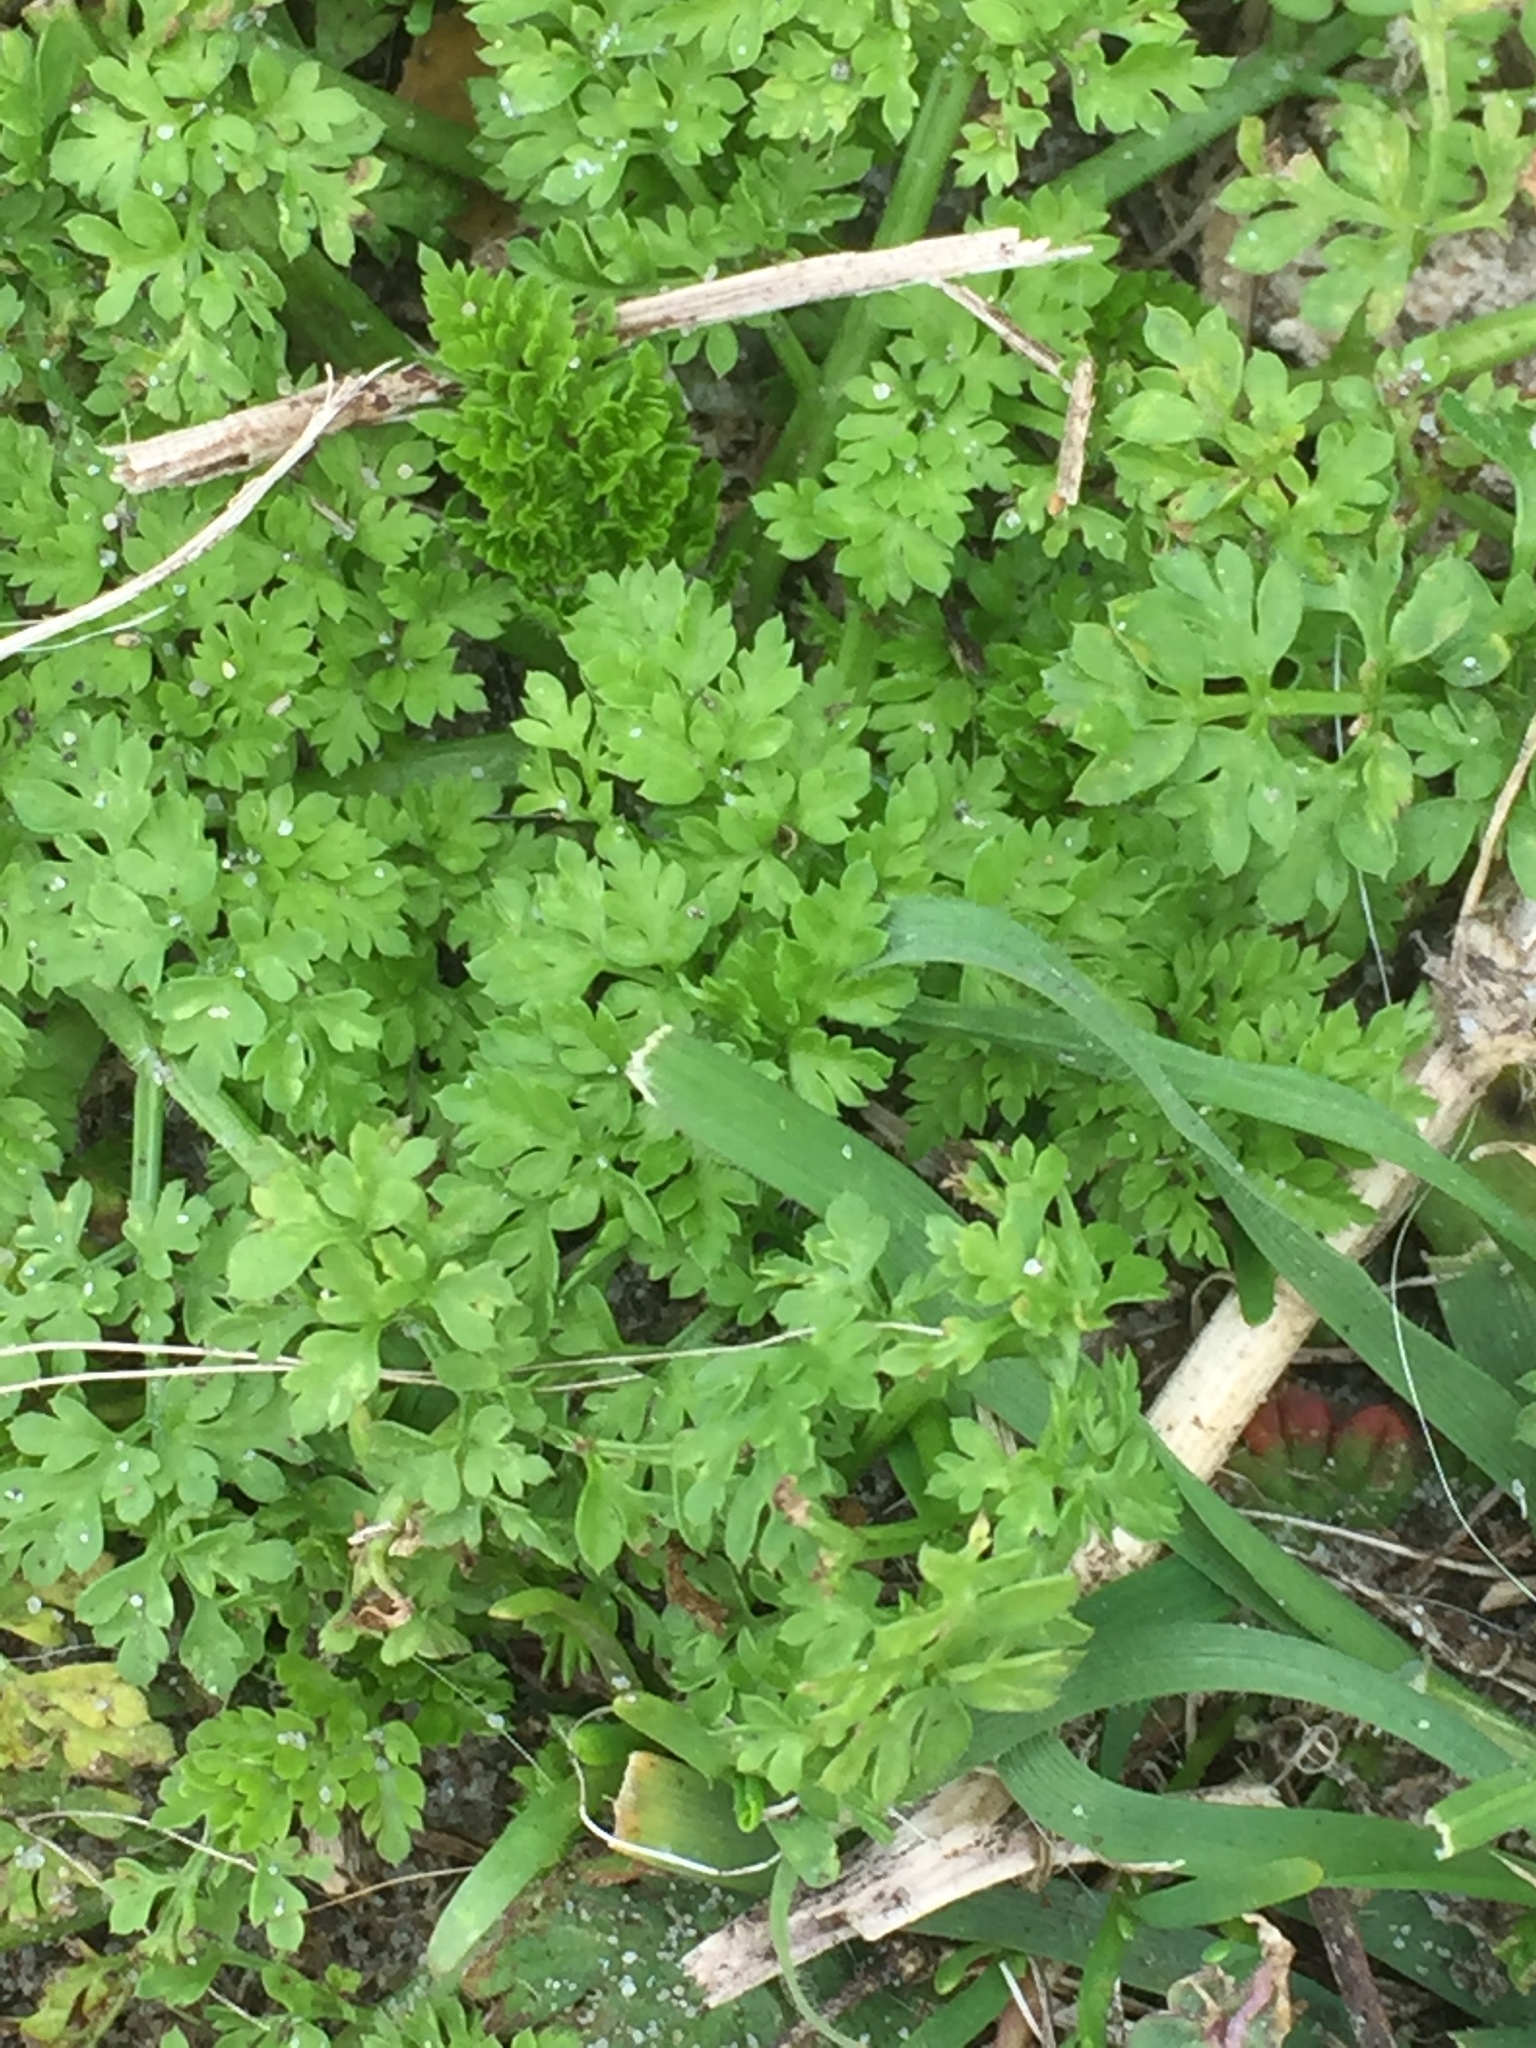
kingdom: Plantae
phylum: Tracheophyta
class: Magnoliopsida
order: Apiales
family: Apiaceae
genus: Anthriscus
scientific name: Anthriscus caucalis
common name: Bur chervil
